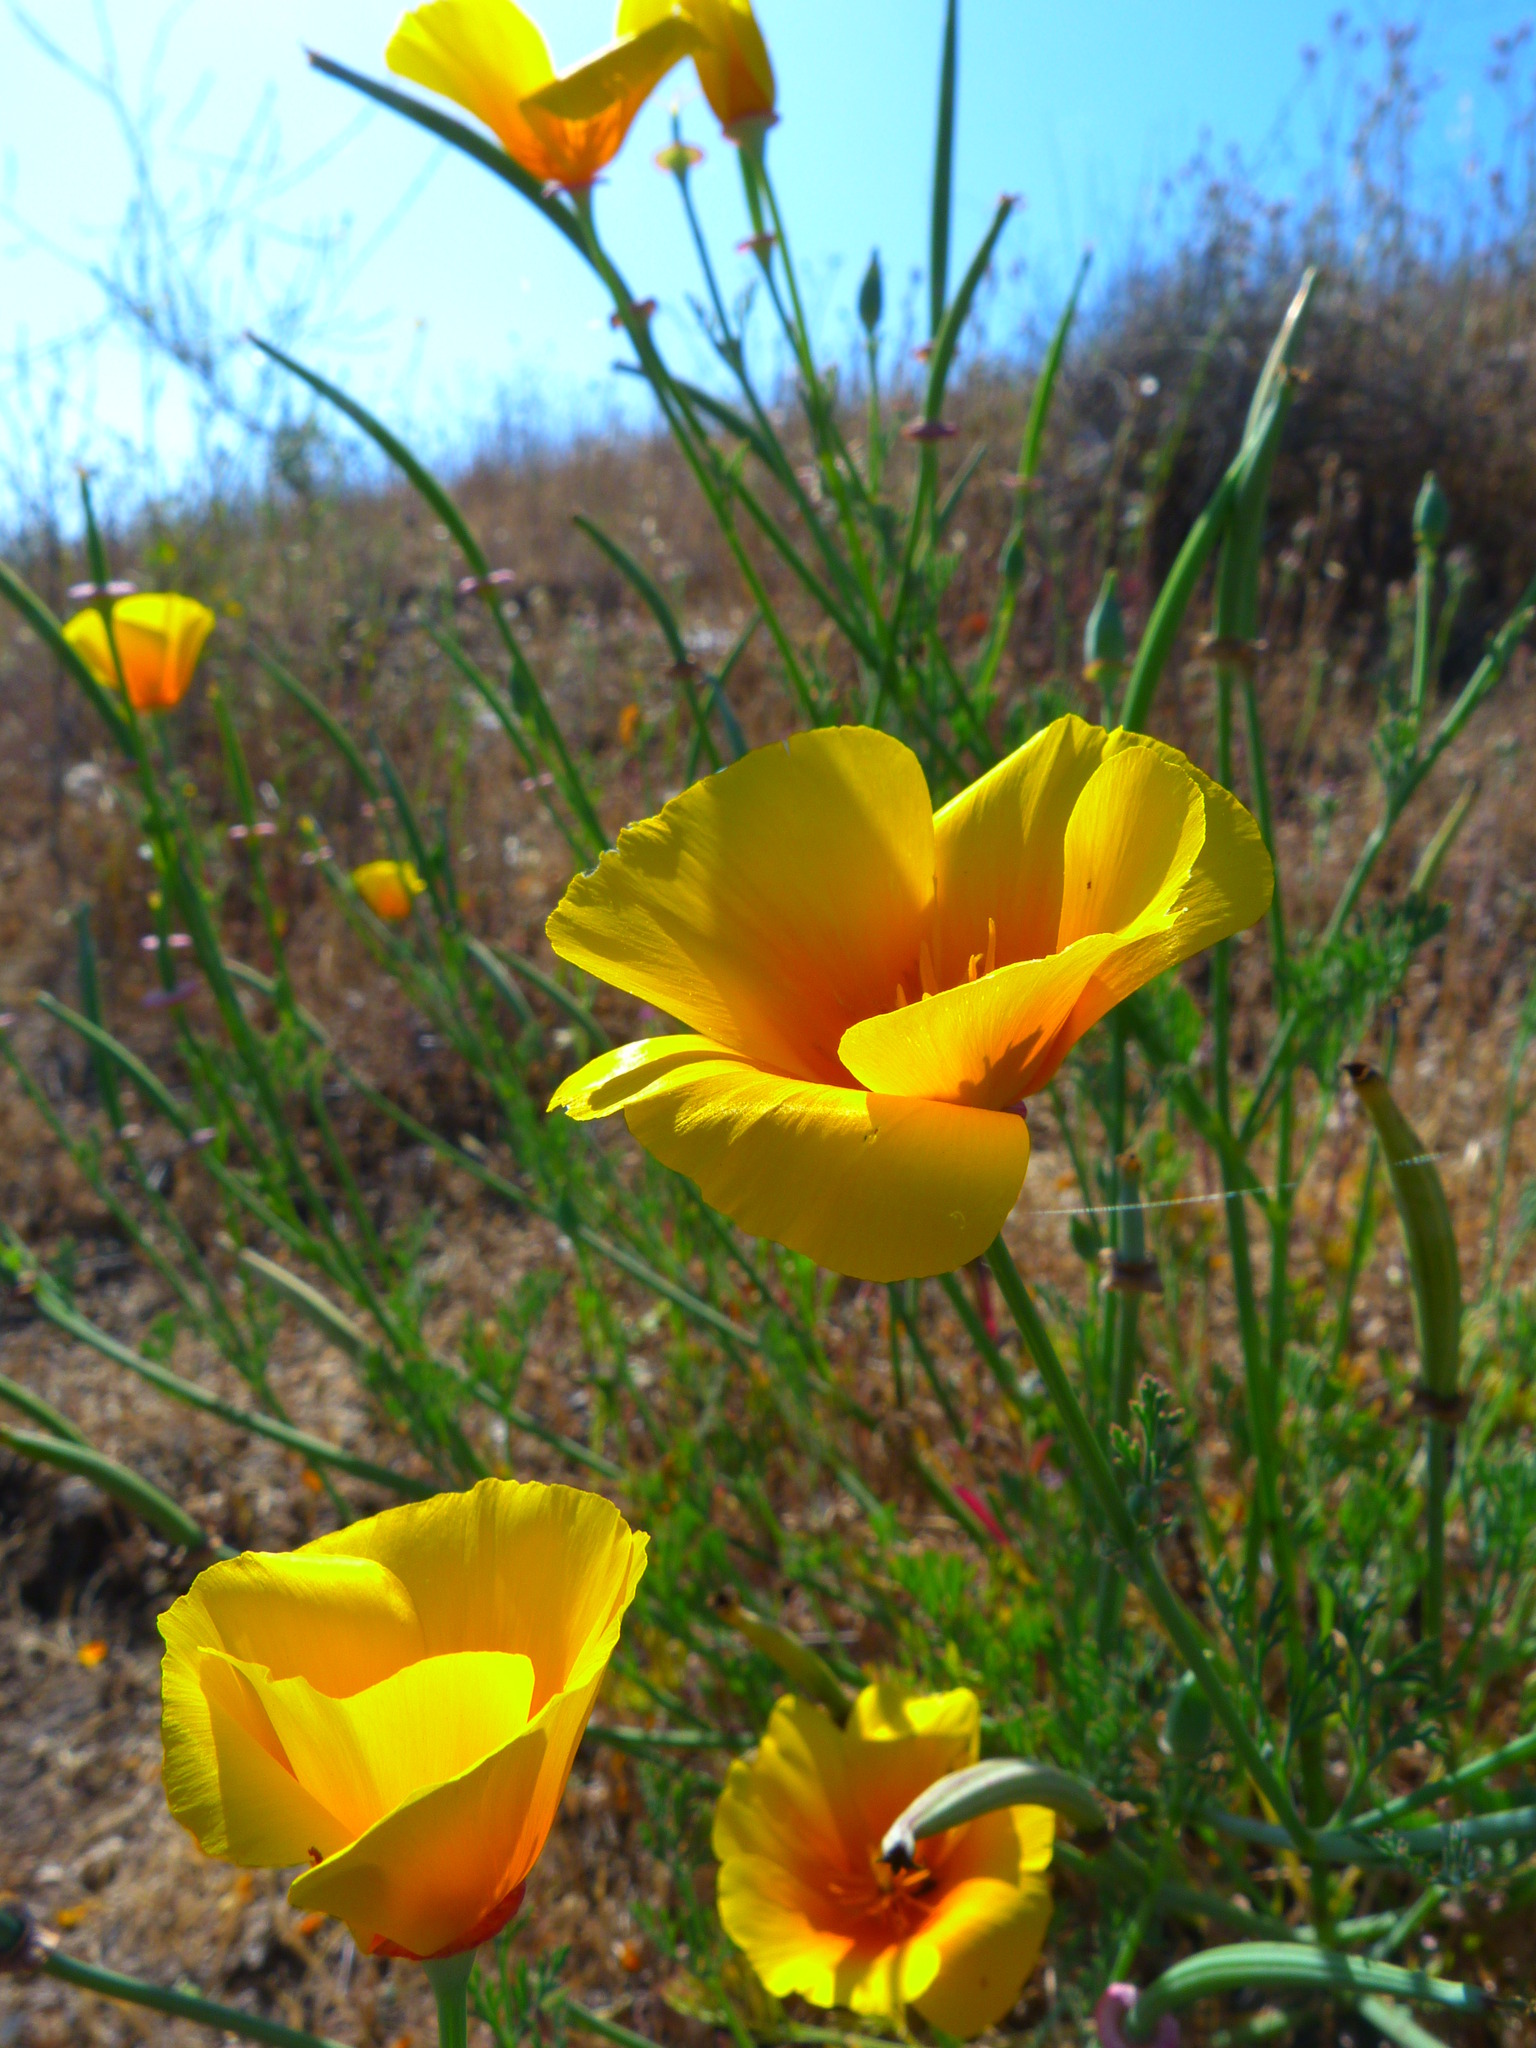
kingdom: Plantae
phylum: Tracheophyta
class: Magnoliopsida
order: Ranunculales
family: Papaveraceae
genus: Eschscholzia
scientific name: Eschscholzia californica
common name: California poppy
